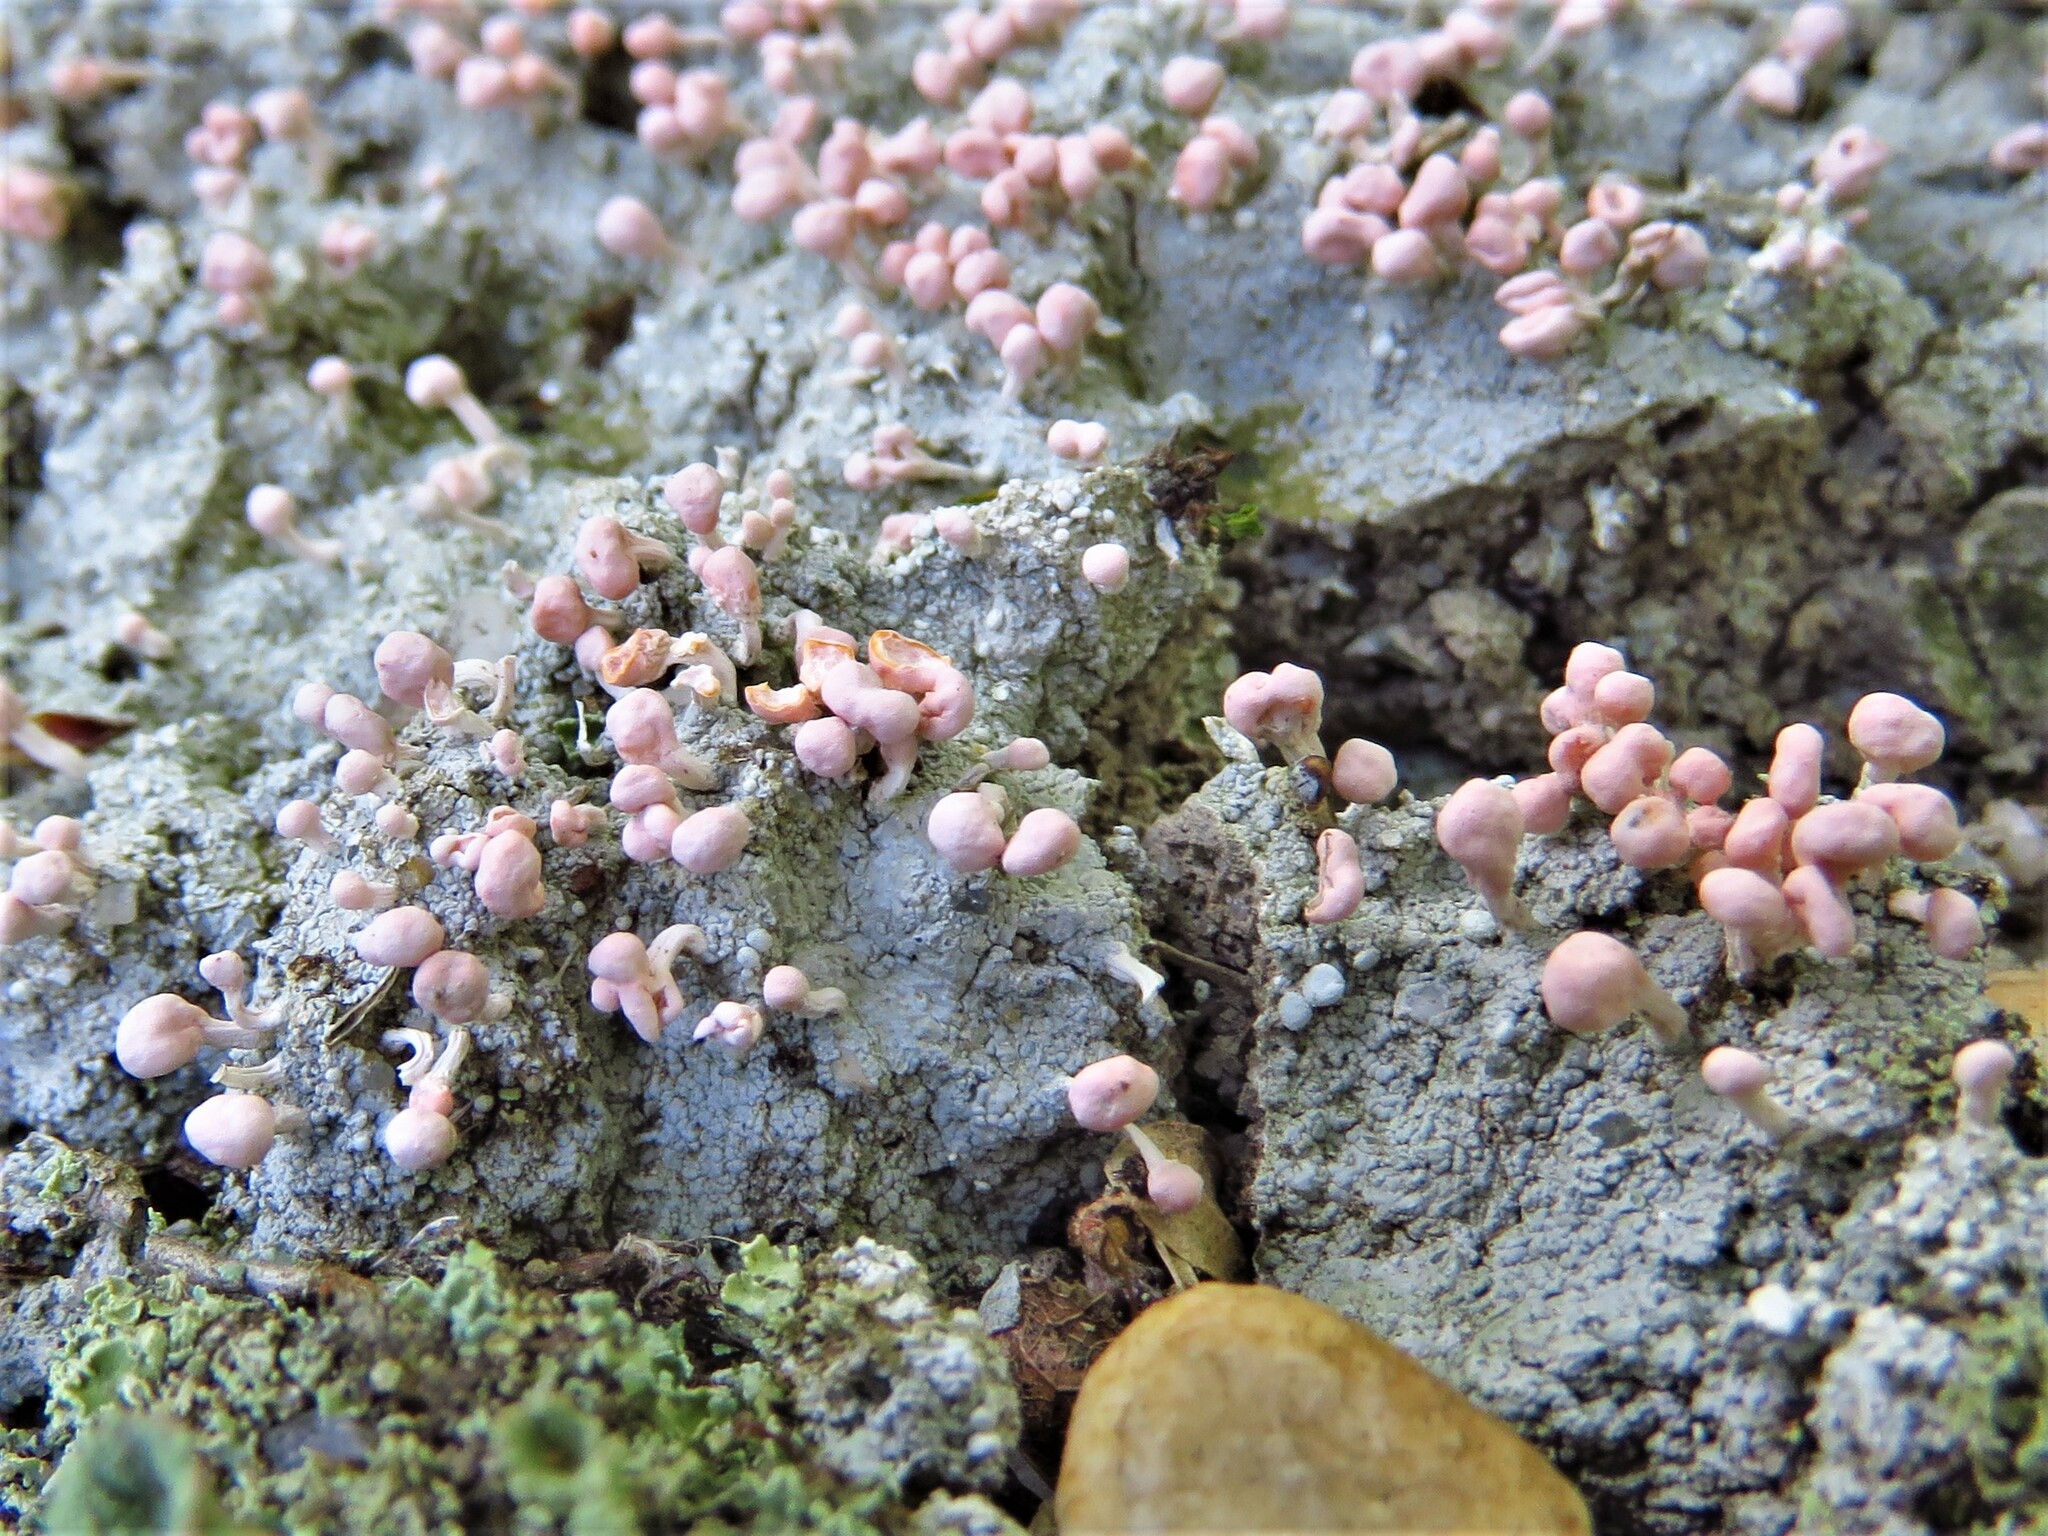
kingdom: Fungi
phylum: Ascomycota
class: Lecanoromycetes
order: Pertusariales
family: Icmadophilaceae
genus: Dibaeis
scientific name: Dibaeis baeomyces
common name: Pink earth lichen
